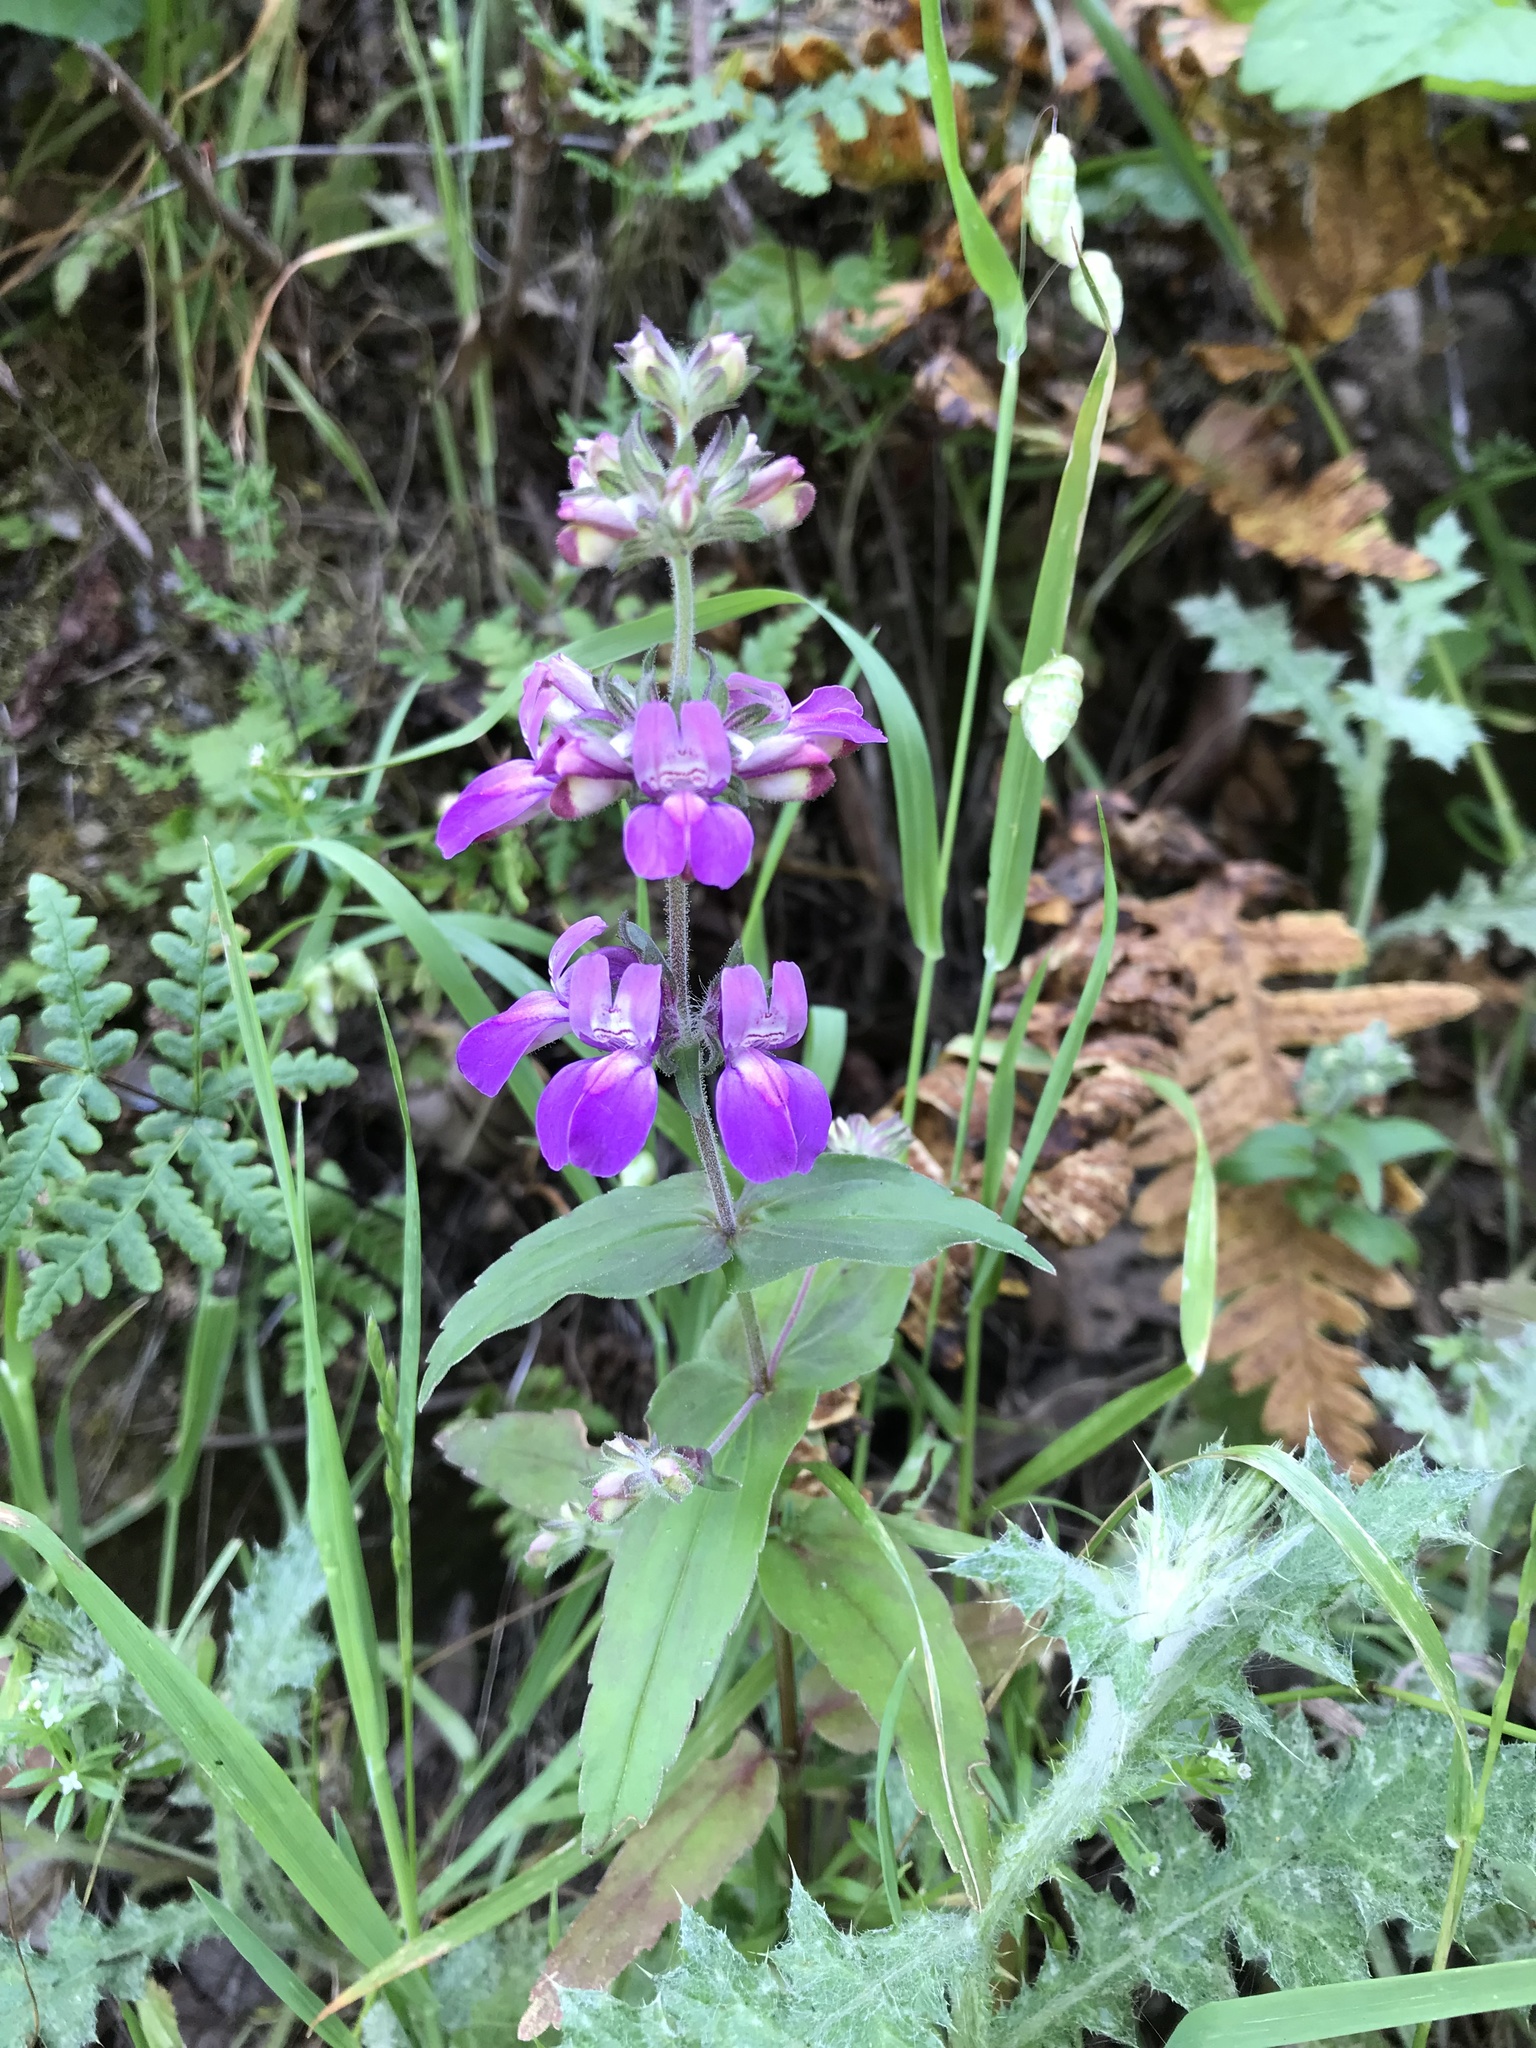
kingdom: Plantae
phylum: Tracheophyta
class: Magnoliopsida
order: Lamiales
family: Plantaginaceae
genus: Collinsia
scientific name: Collinsia heterophylla
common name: Chinese-houses
